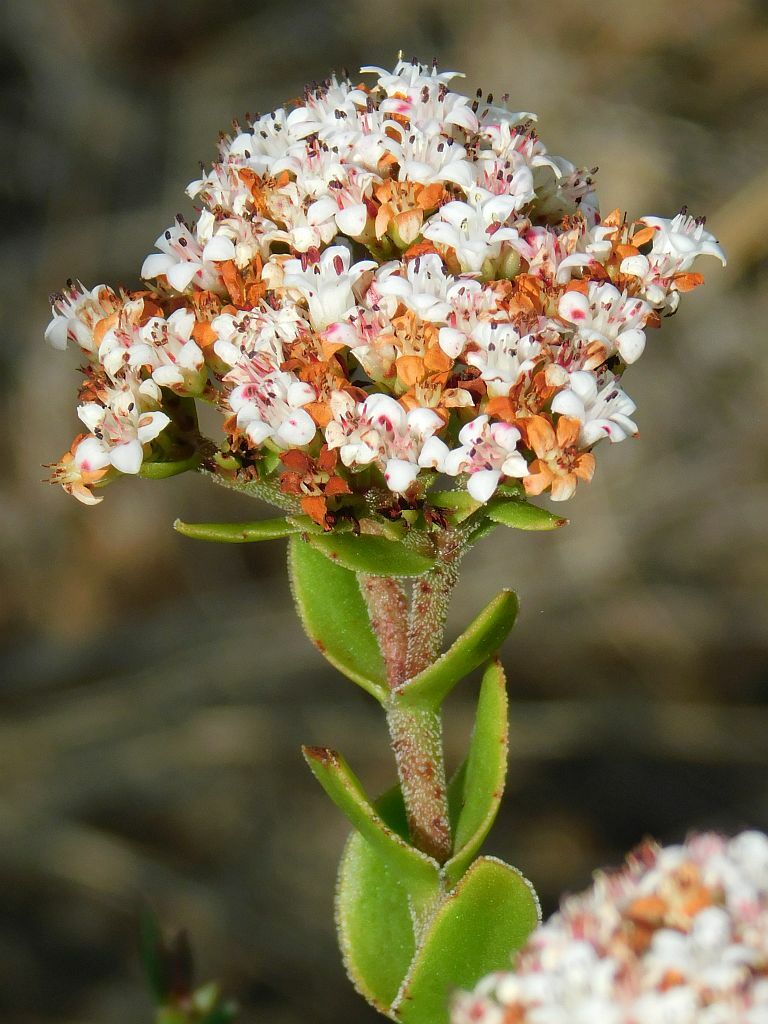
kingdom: Plantae
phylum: Tracheophyta
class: Magnoliopsida
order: Saxifragales
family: Crassulaceae
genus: Crassula
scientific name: Crassula undulata
